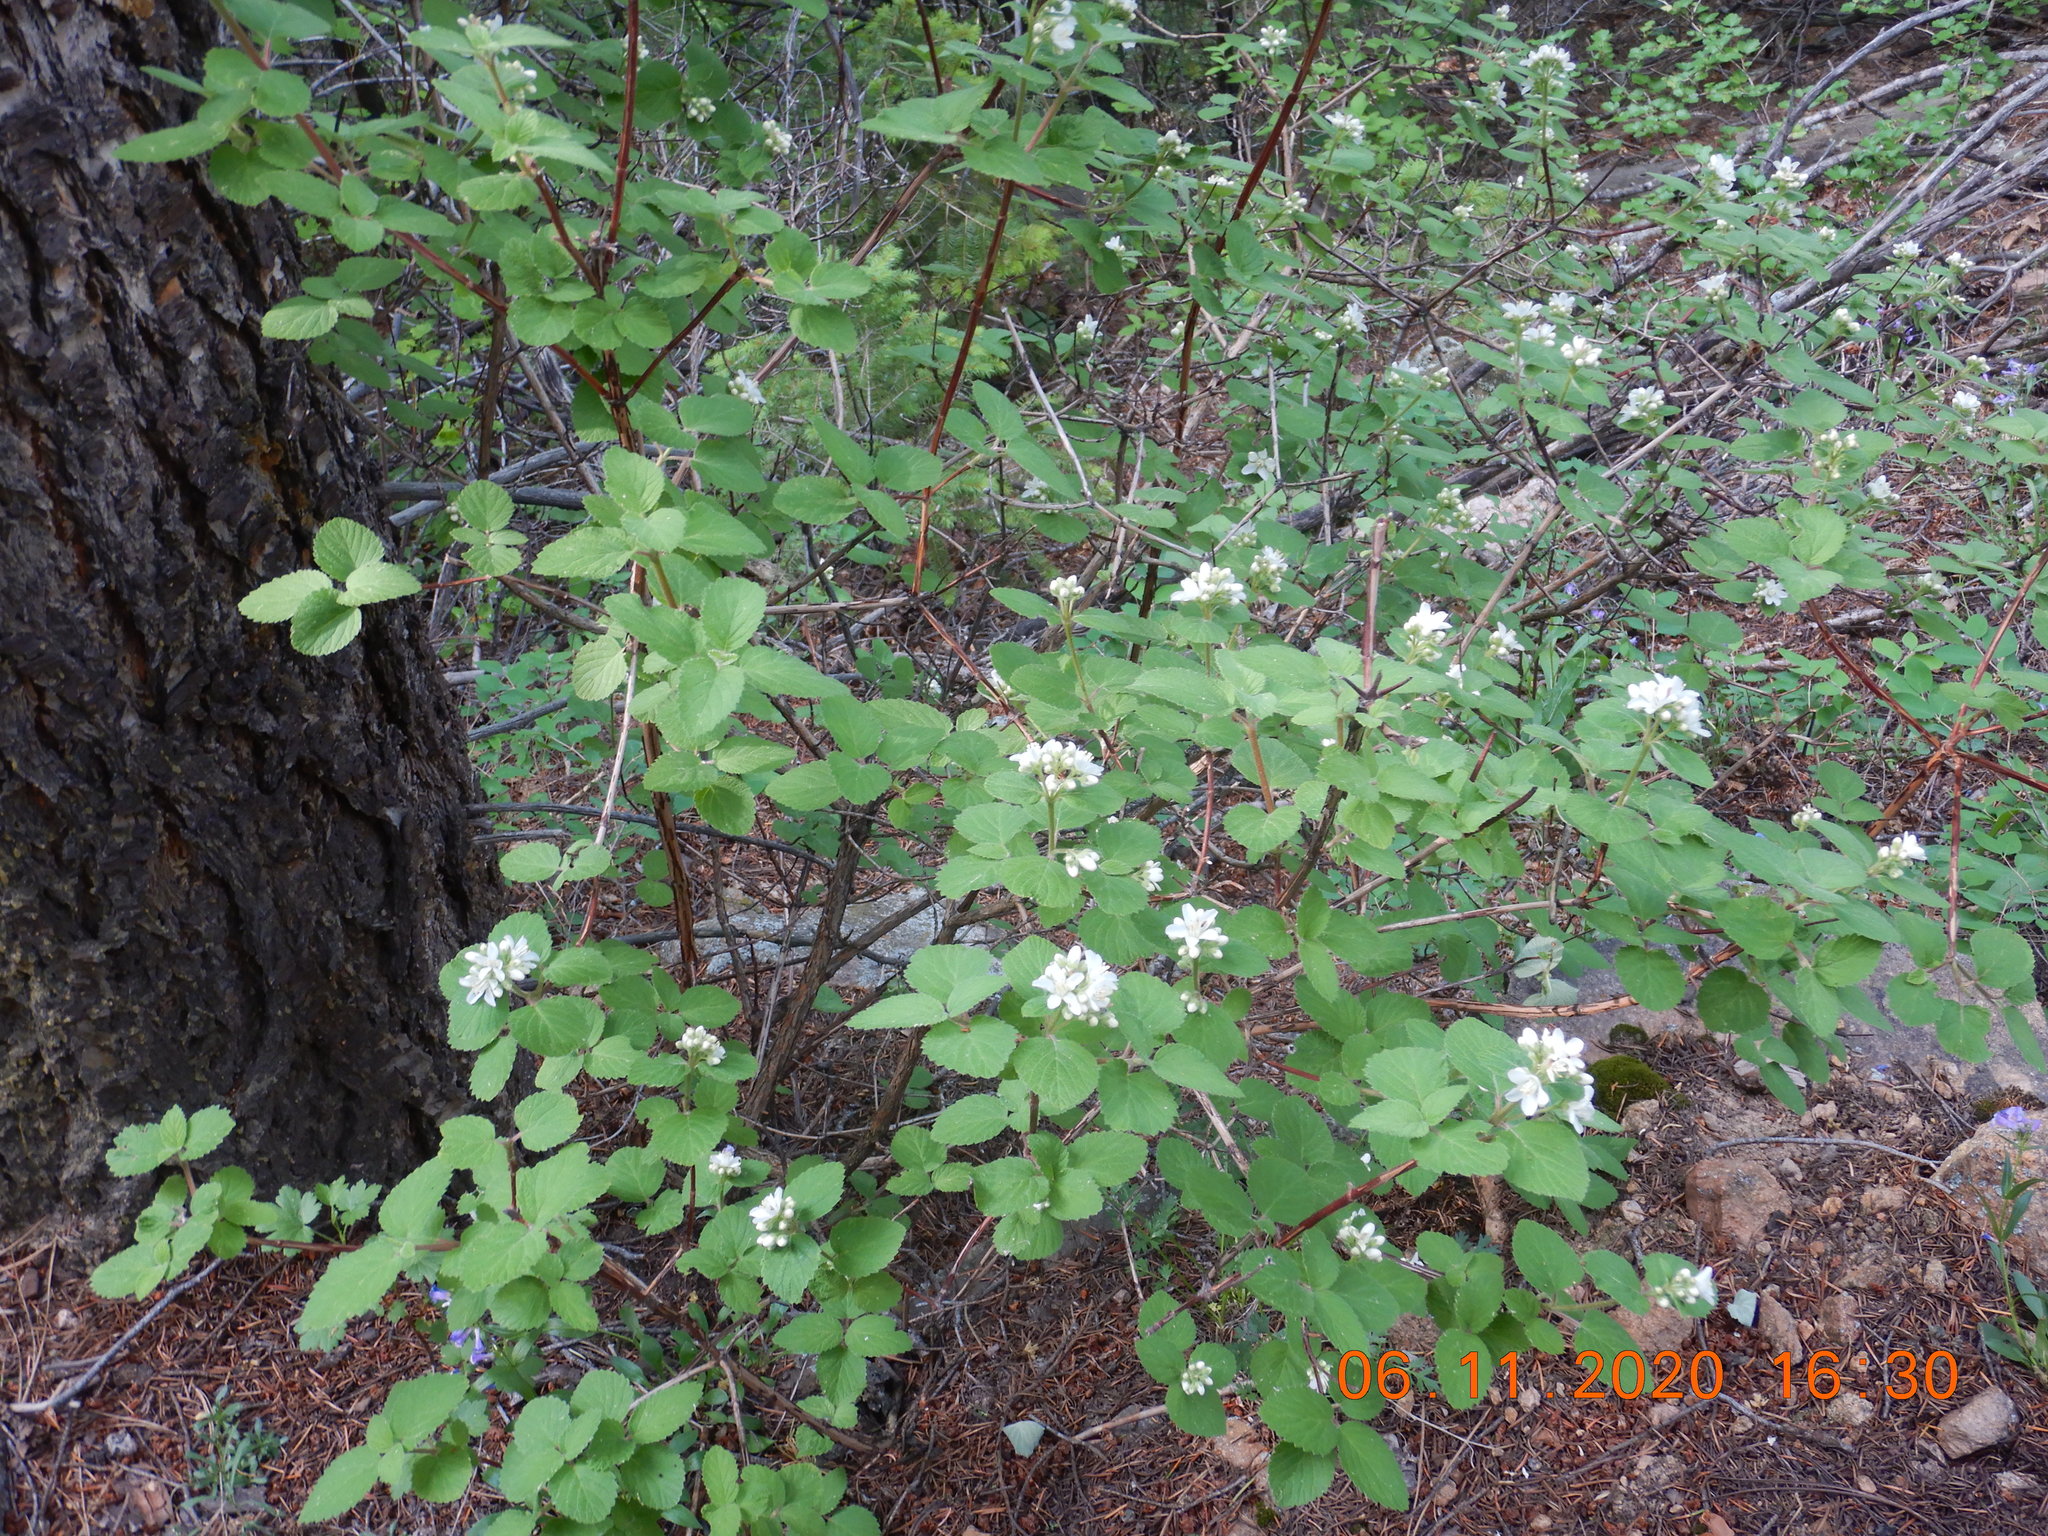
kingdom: Plantae
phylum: Tracheophyta
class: Magnoliopsida
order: Cornales
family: Hydrangeaceae
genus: Jamesia
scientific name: Jamesia americana
